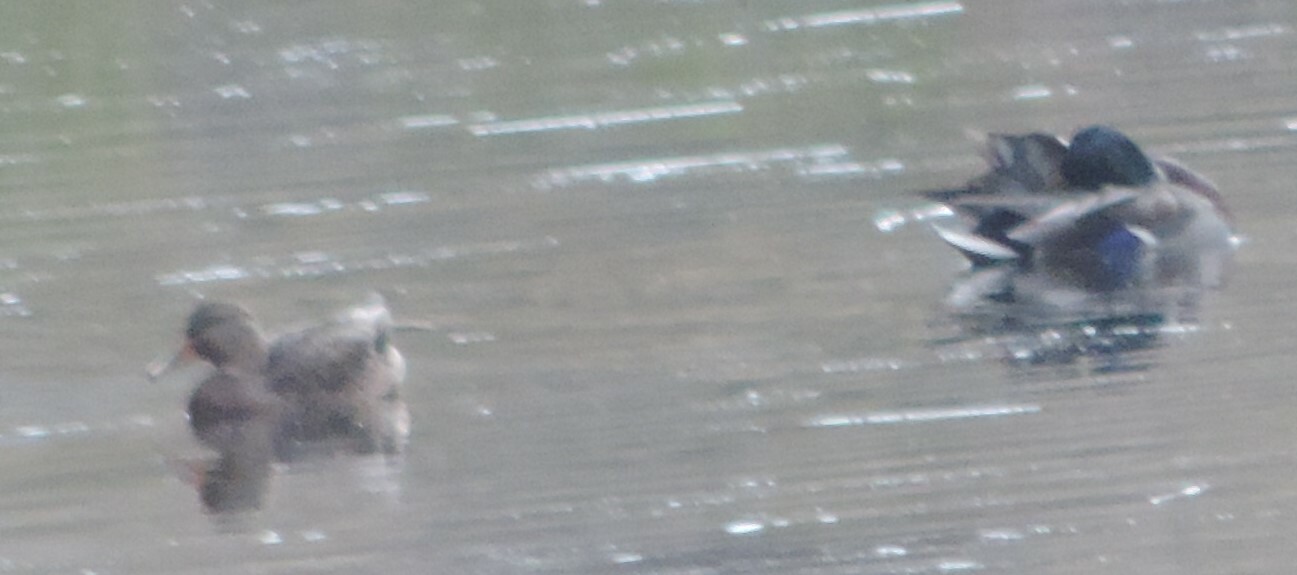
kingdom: Animalia
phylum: Chordata
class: Aves
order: Anseriformes
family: Anatidae
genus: Anas
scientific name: Anas platyrhynchos
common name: Mallard
